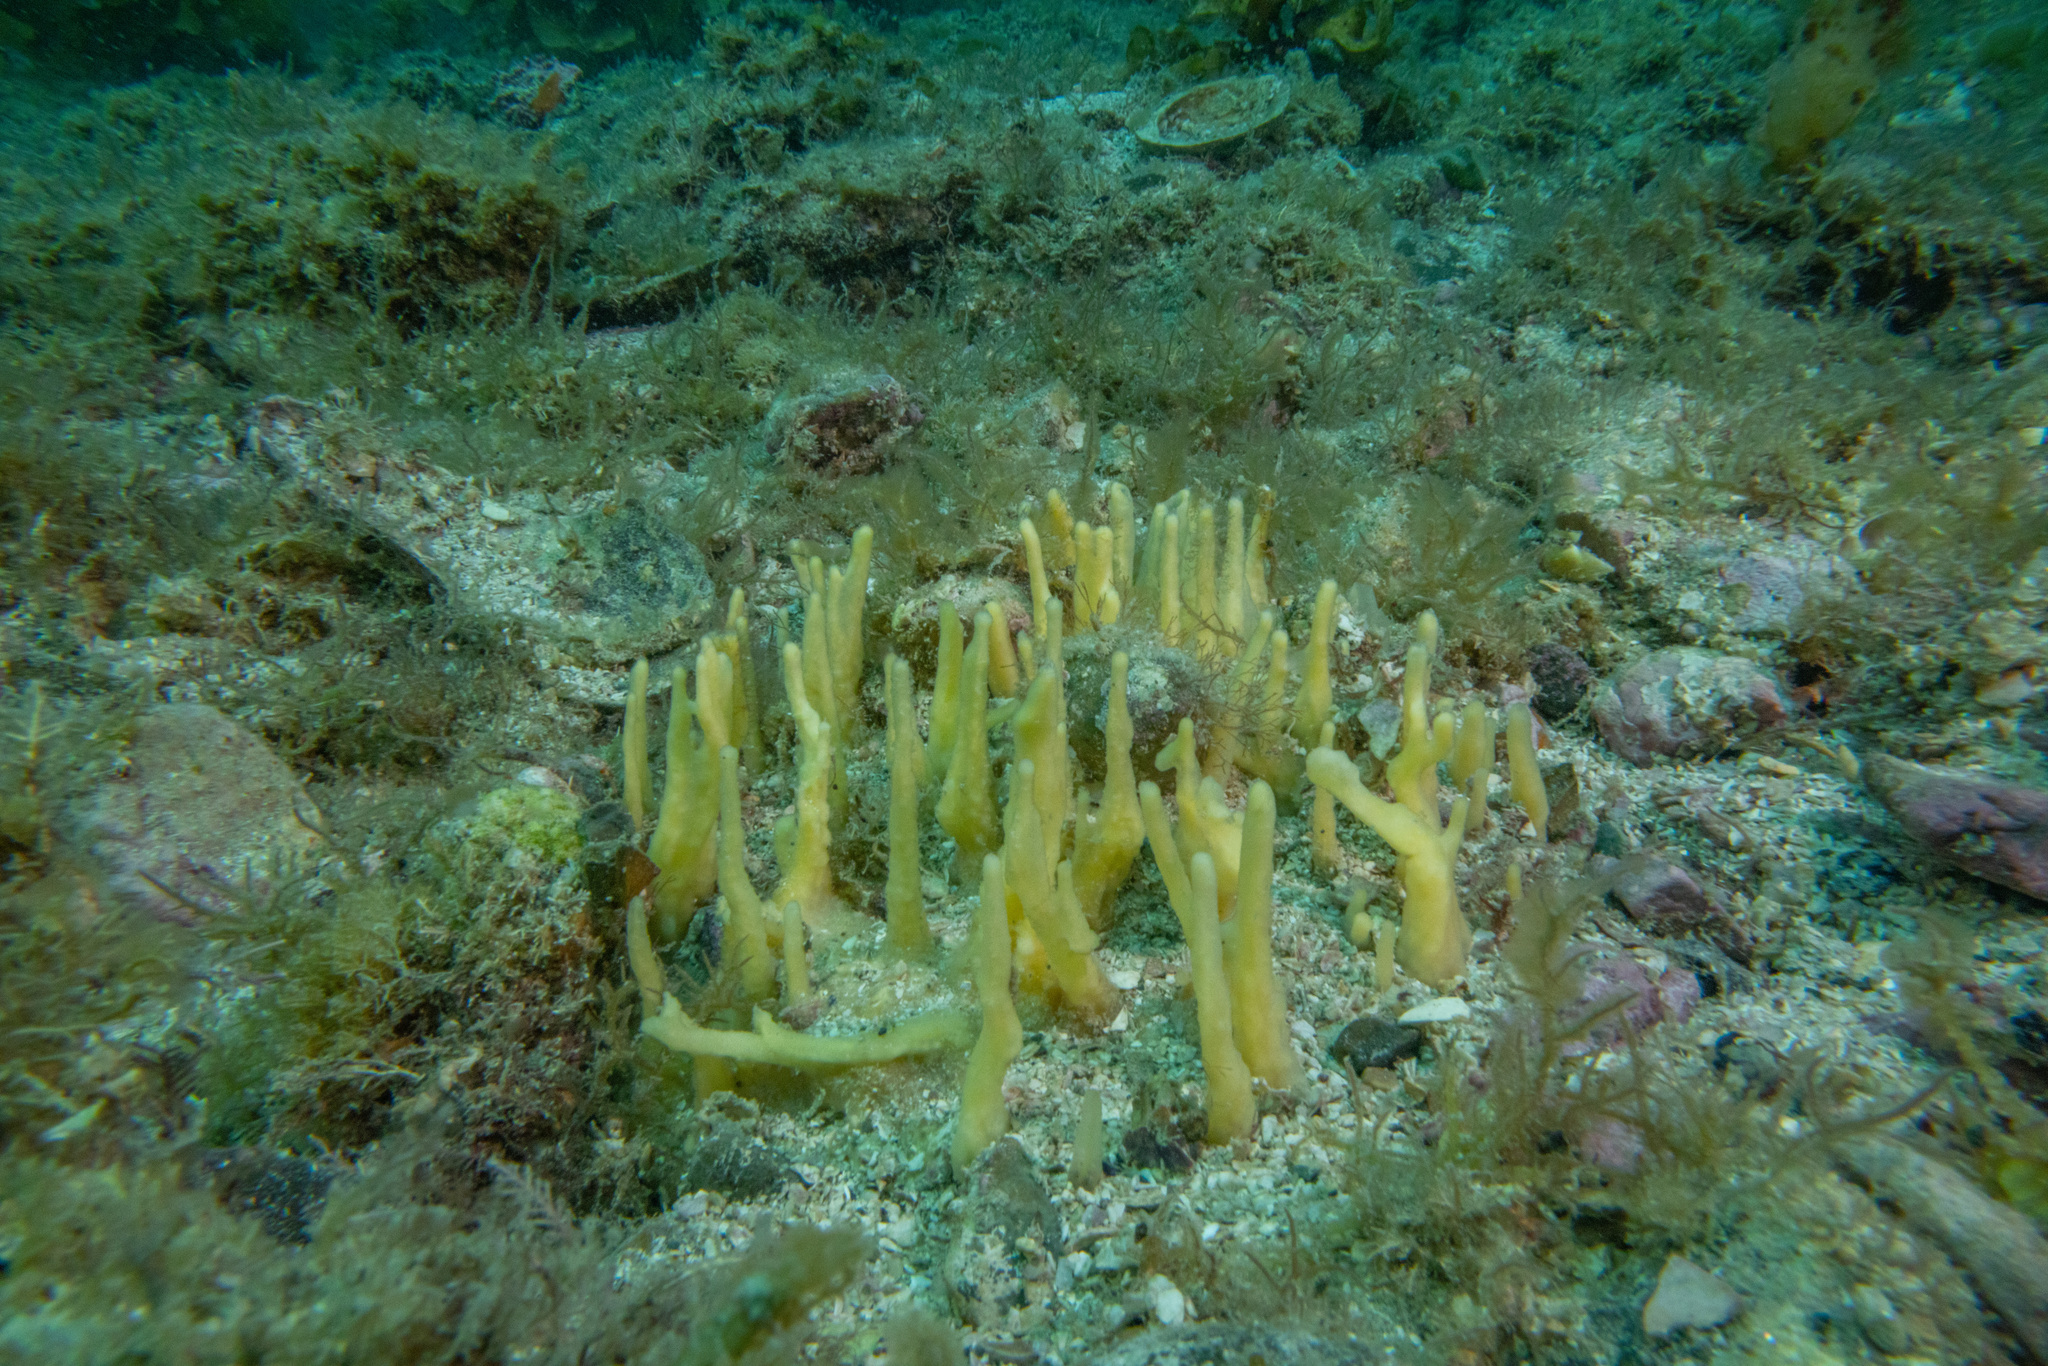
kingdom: Animalia
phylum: Porifera
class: Demospongiae
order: Suberitida
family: Halichondriidae
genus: Ciocalypta
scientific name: Ciocalypta polymastia
